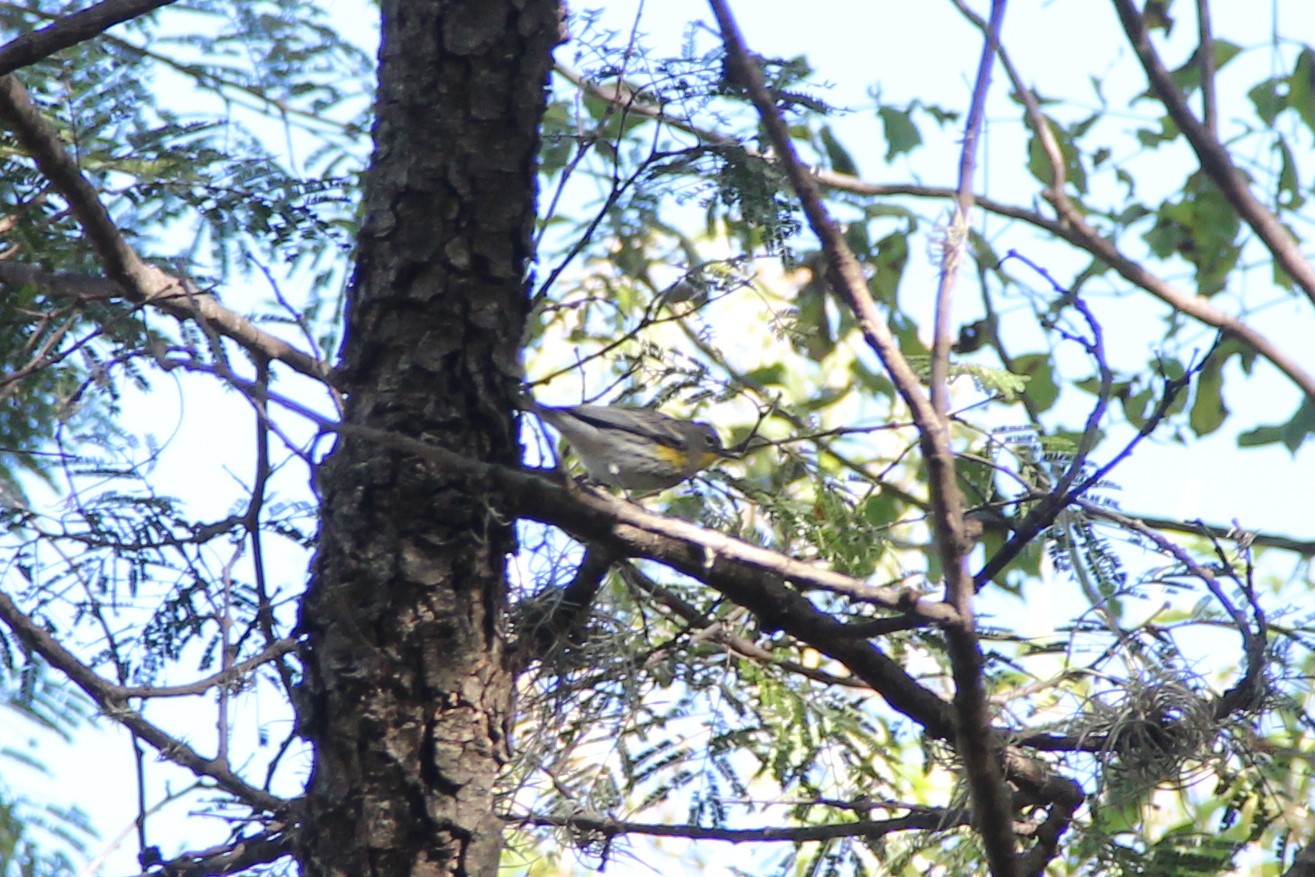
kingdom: Animalia
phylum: Chordata
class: Aves
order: Passeriformes
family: Parulidae
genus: Setophaga
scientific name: Setophaga coronata
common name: Myrtle warbler
